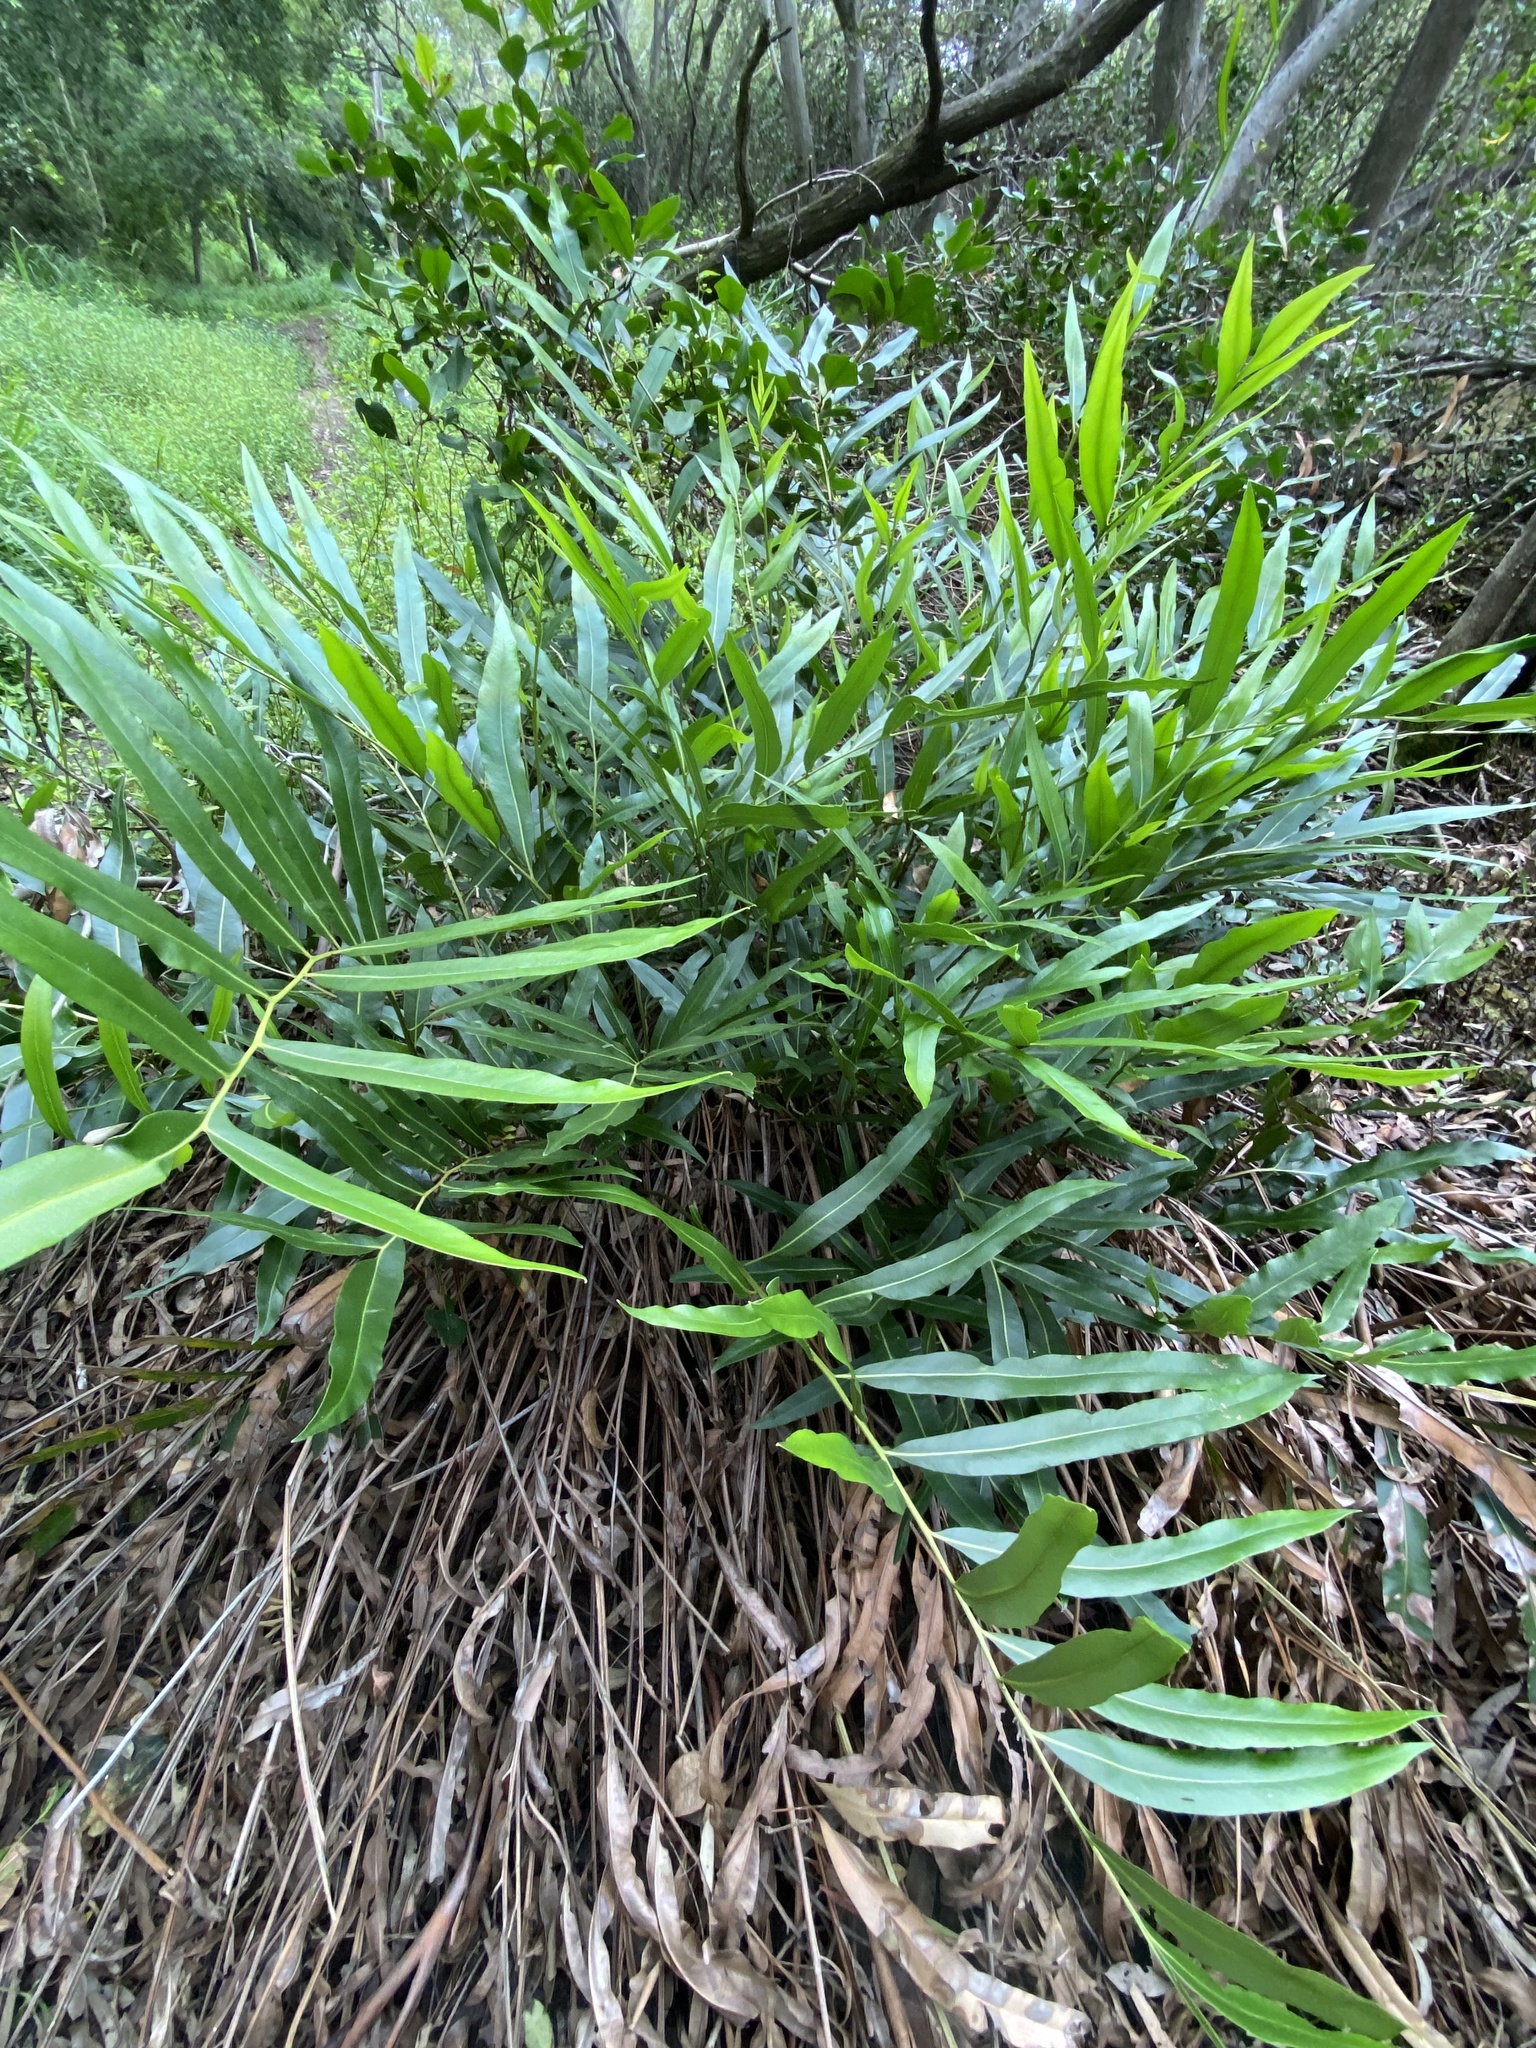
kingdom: Plantae
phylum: Tracheophyta
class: Polypodiopsida
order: Polypodiales
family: Pteridaceae
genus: Acrostichum
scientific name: Acrostichum speciosum
